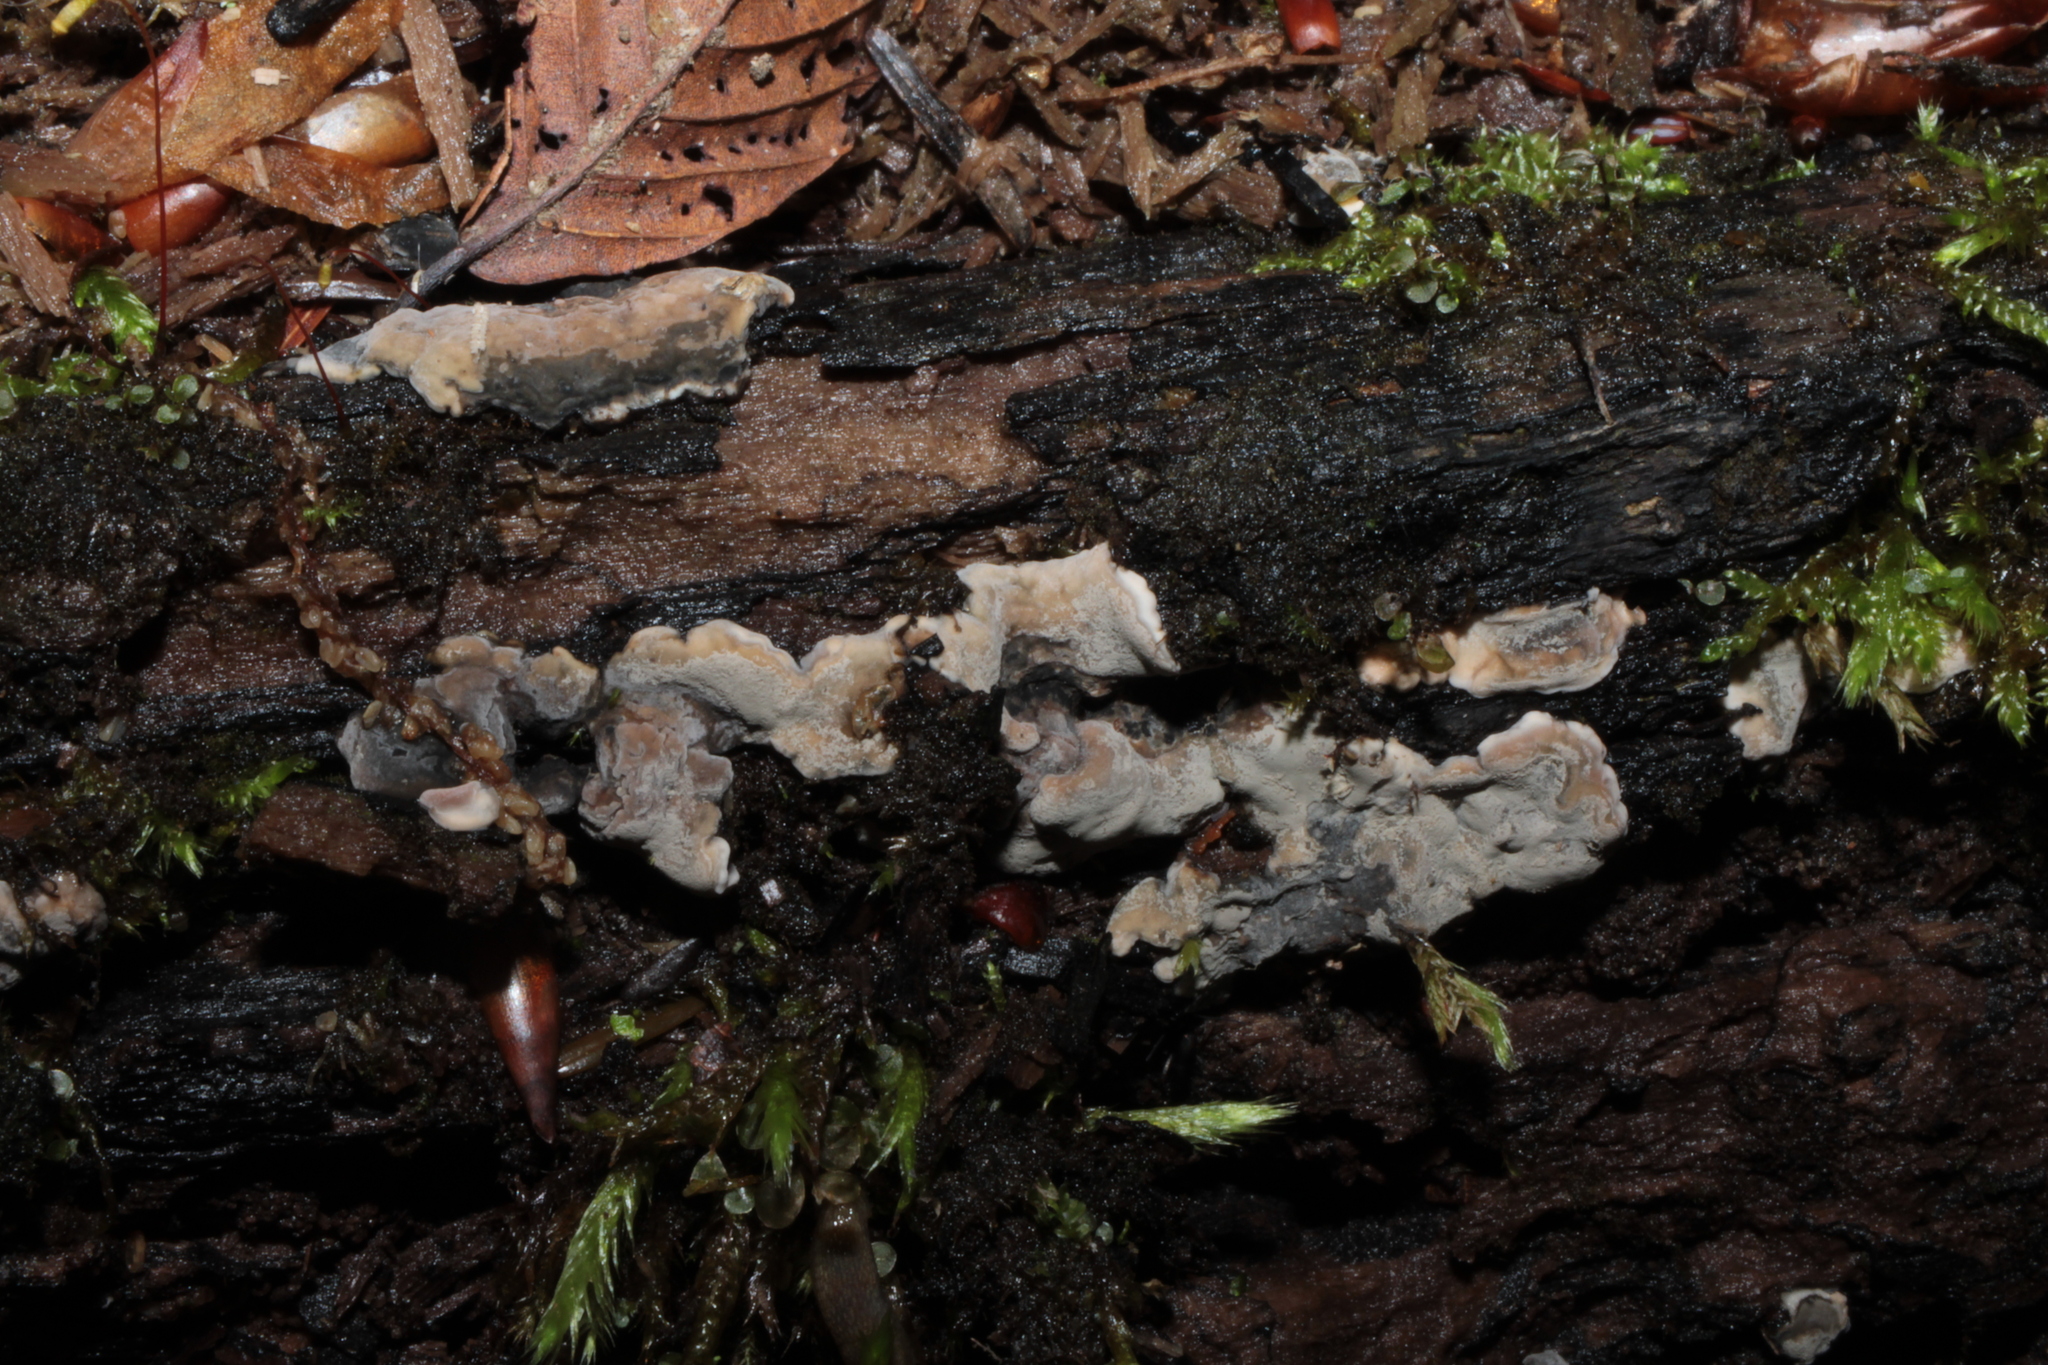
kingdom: Fungi
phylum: Ascomycota
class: Sordariomycetes
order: Xylariales
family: Xylariaceae
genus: Kretzschmaria
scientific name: Kretzschmaria hedjaroudei
